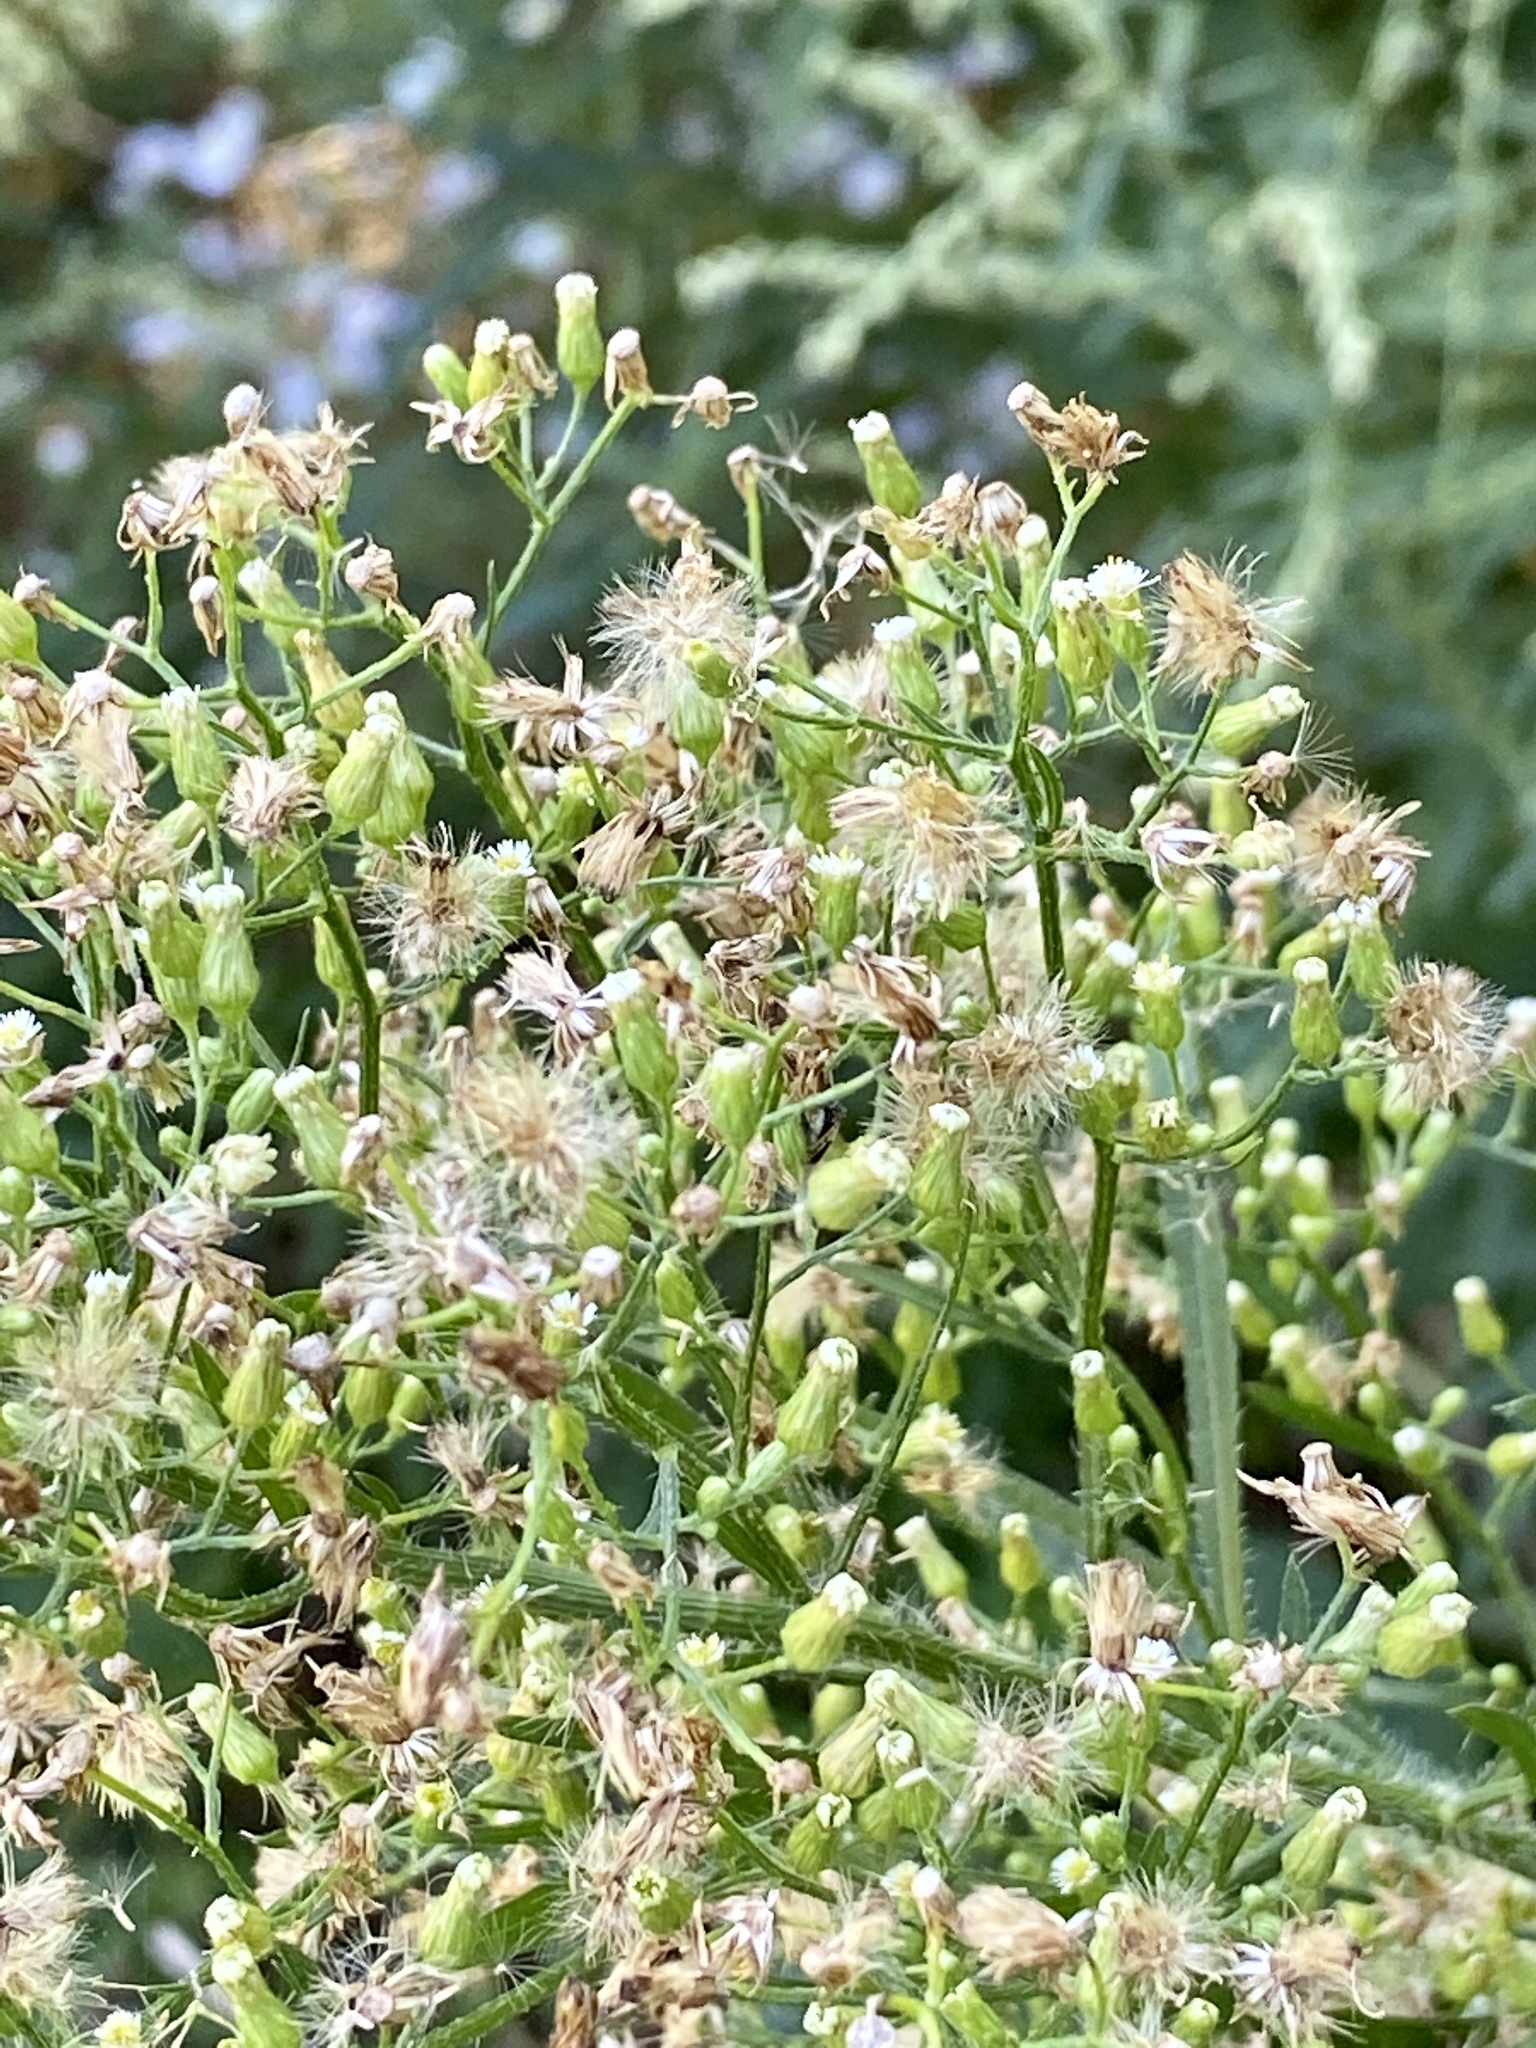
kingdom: Plantae
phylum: Tracheophyta
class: Magnoliopsida
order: Asterales
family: Asteraceae
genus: Erigeron
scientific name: Erigeron canadensis
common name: Canadian fleabane
